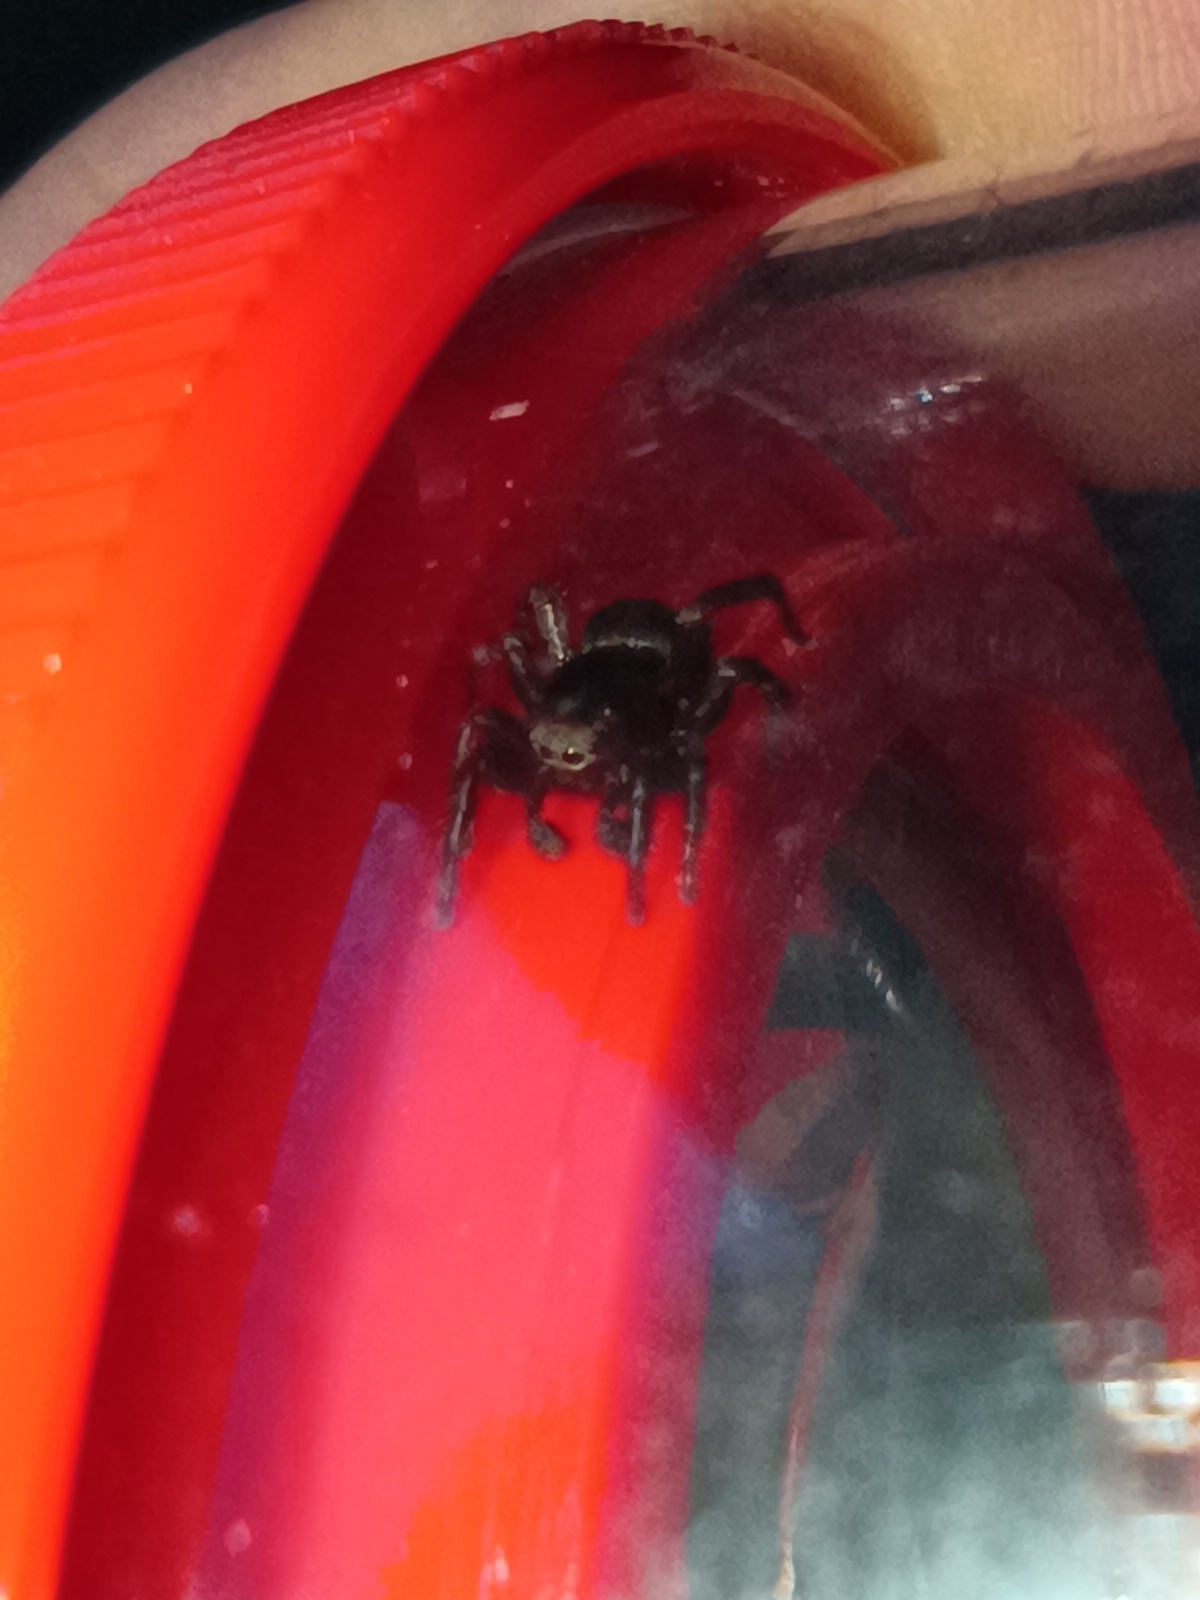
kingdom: Animalia
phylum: Arthropoda
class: Arachnida
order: Araneae
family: Salticidae
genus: Phlegra
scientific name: Phlegra fasciata
